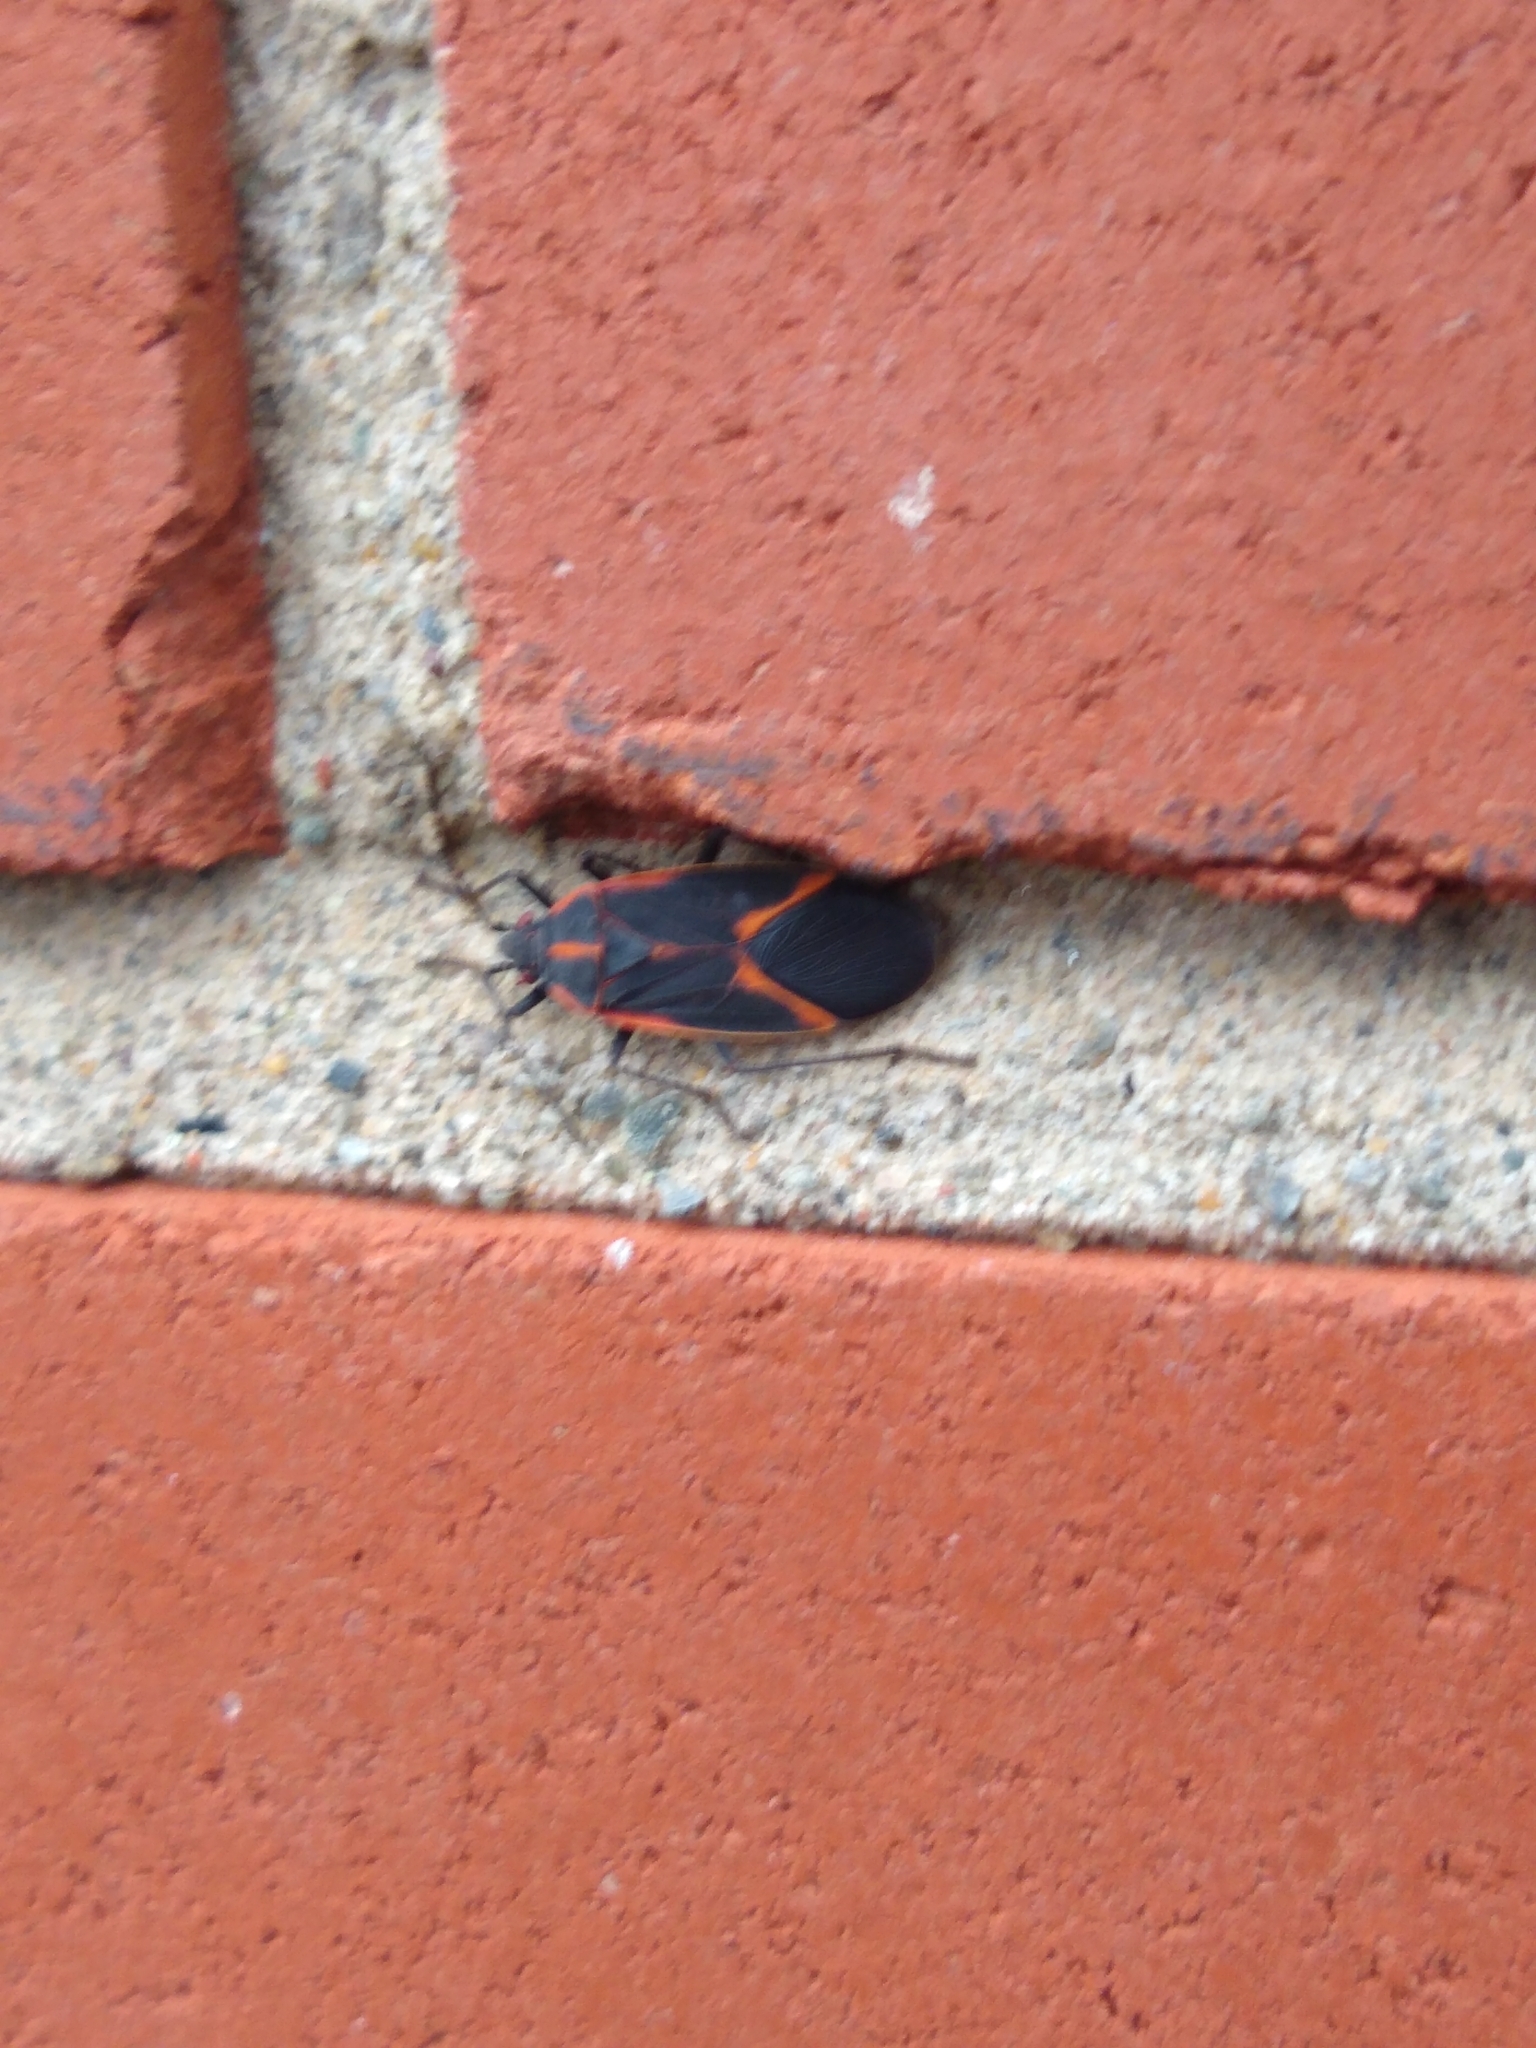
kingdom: Animalia
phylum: Arthropoda
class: Insecta
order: Hemiptera
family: Rhopalidae
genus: Boisea
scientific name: Boisea trivittata
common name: Boxelder bug
